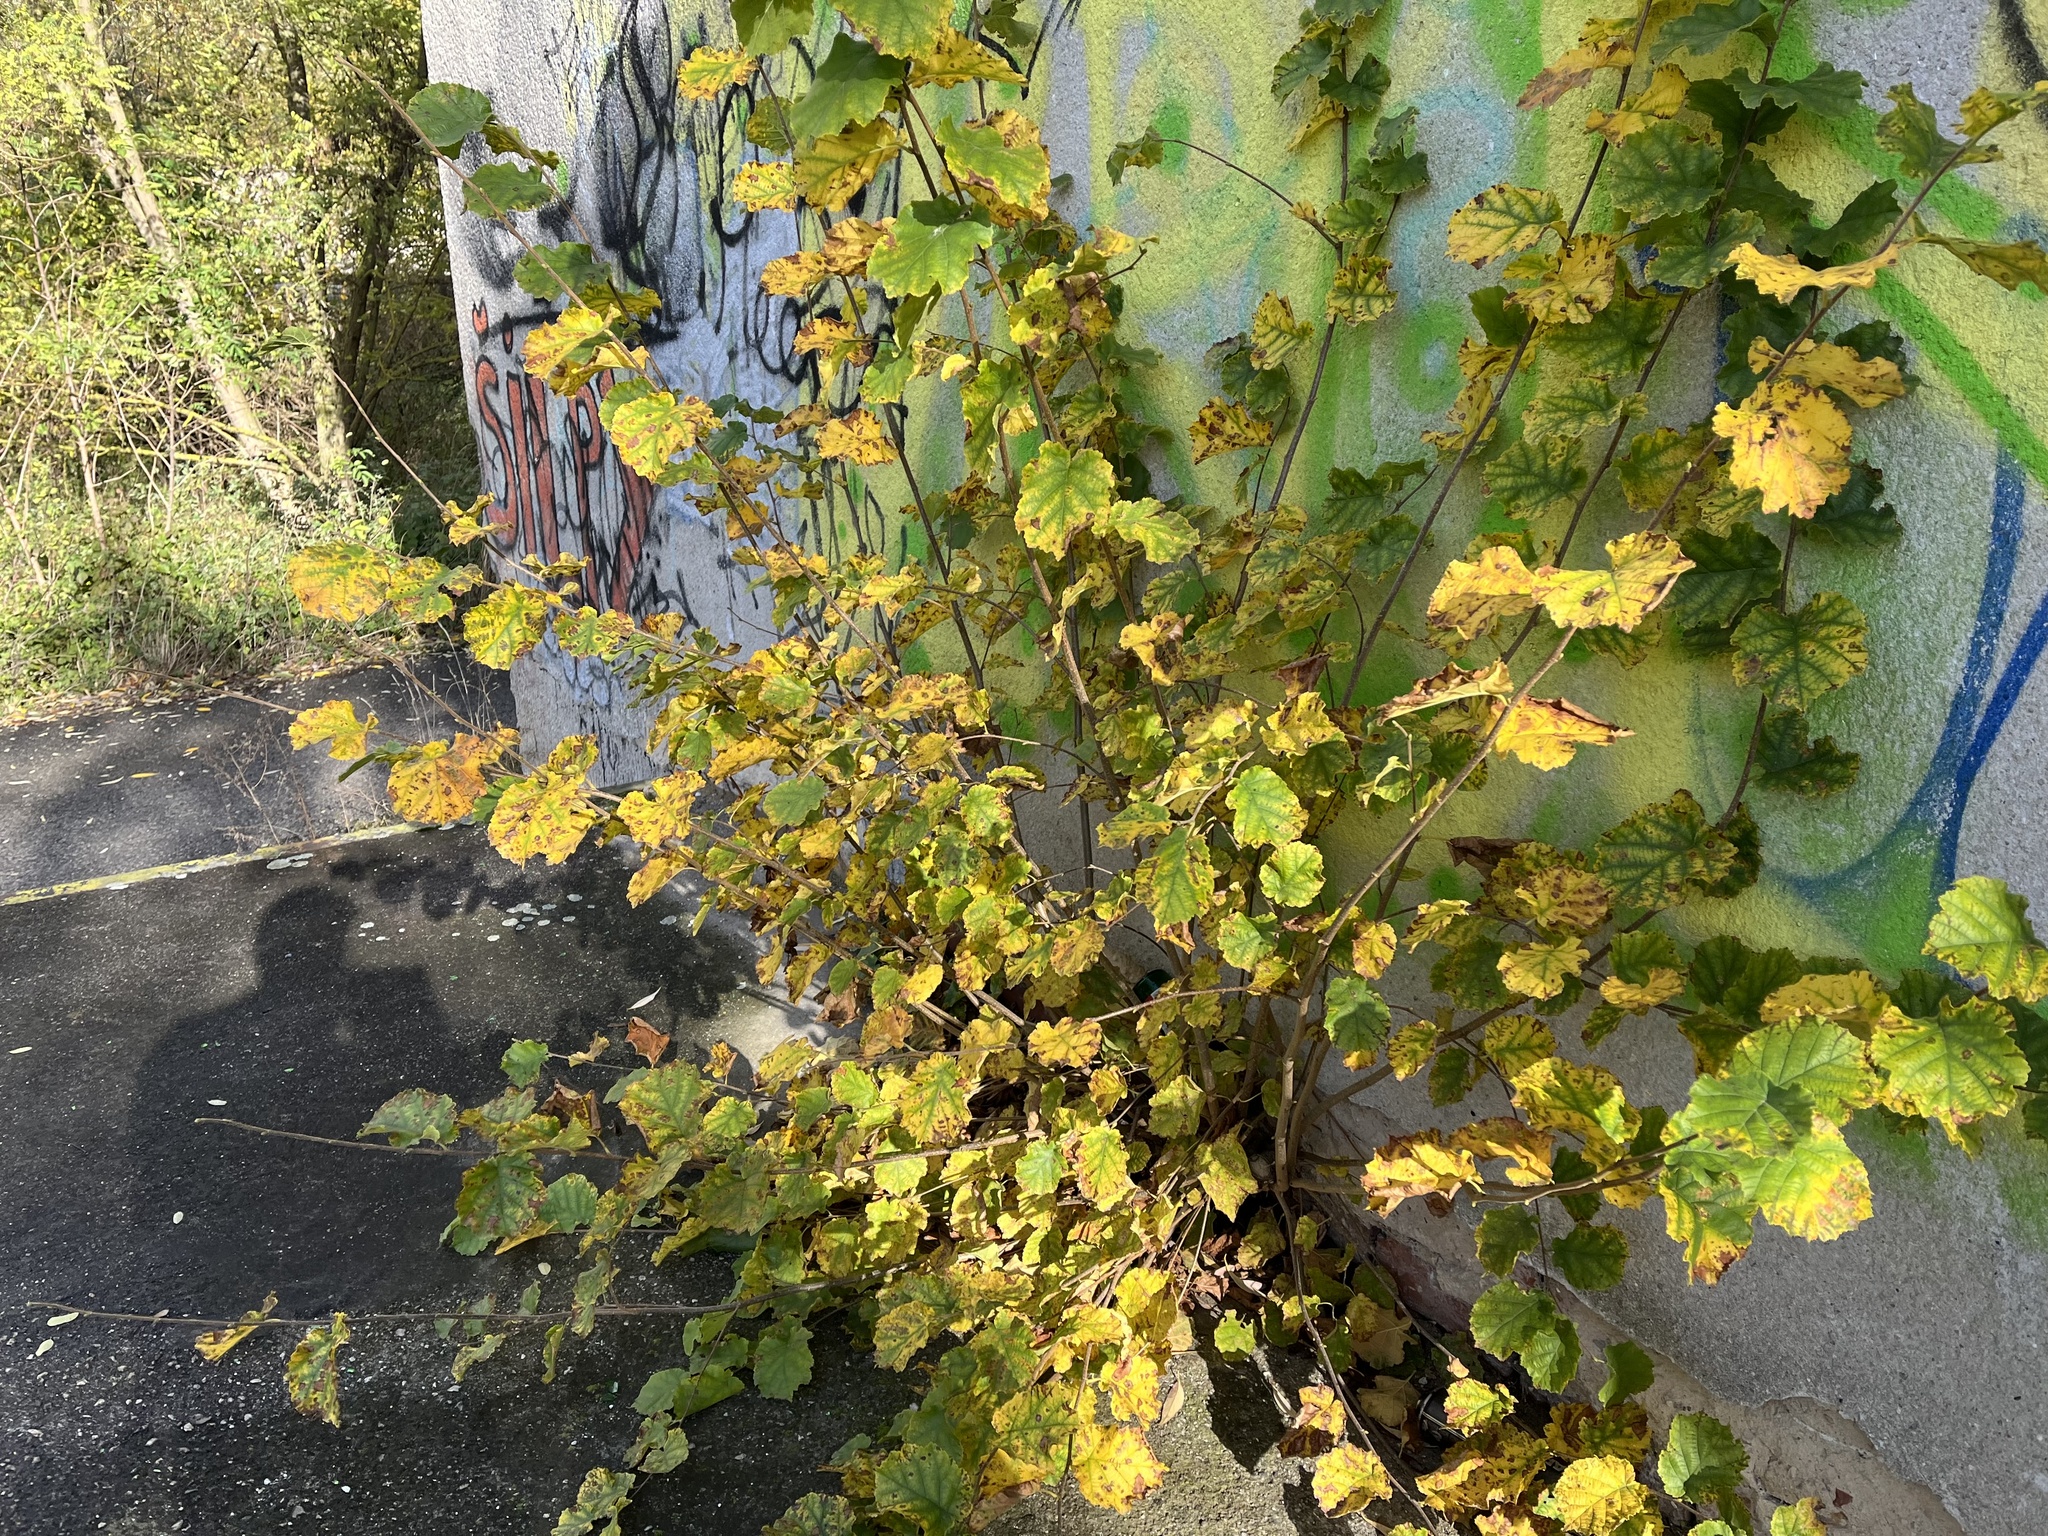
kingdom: Plantae
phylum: Tracheophyta
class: Magnoliopsida
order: Fagales
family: Betulaceae
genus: Corylus
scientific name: Corylus avellana
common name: European hazel
